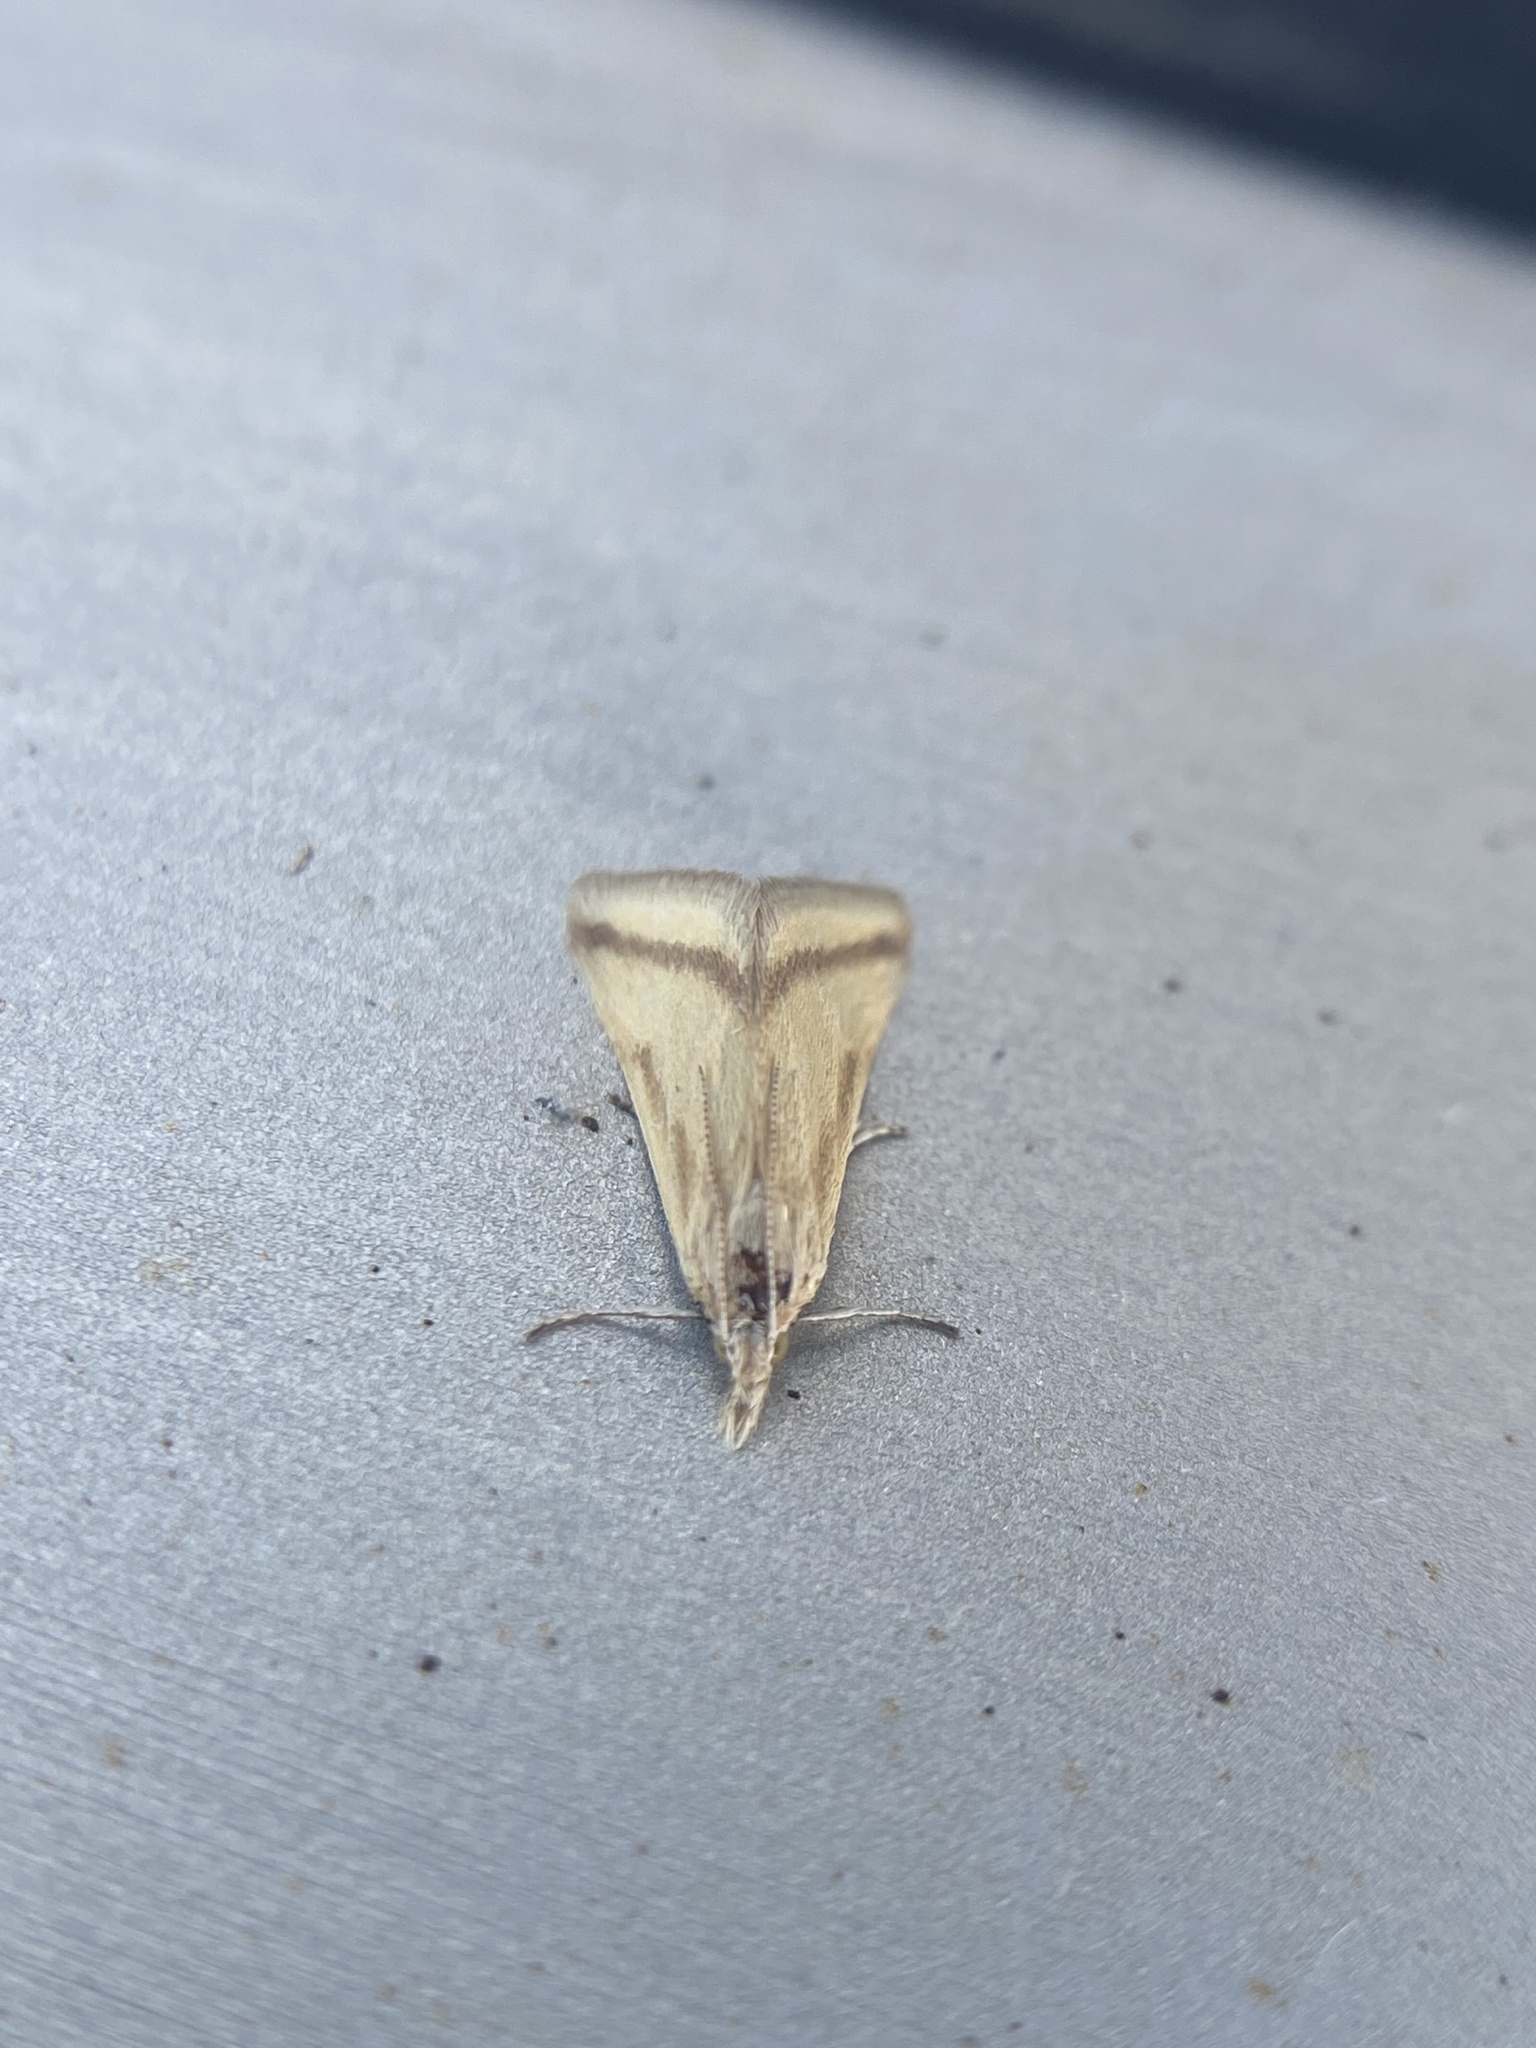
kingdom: Animalia
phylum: Arthropoda
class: Insecta
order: Lepidoptera
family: Crambidae
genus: Microtheoris
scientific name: Microtheoris vibicalis
